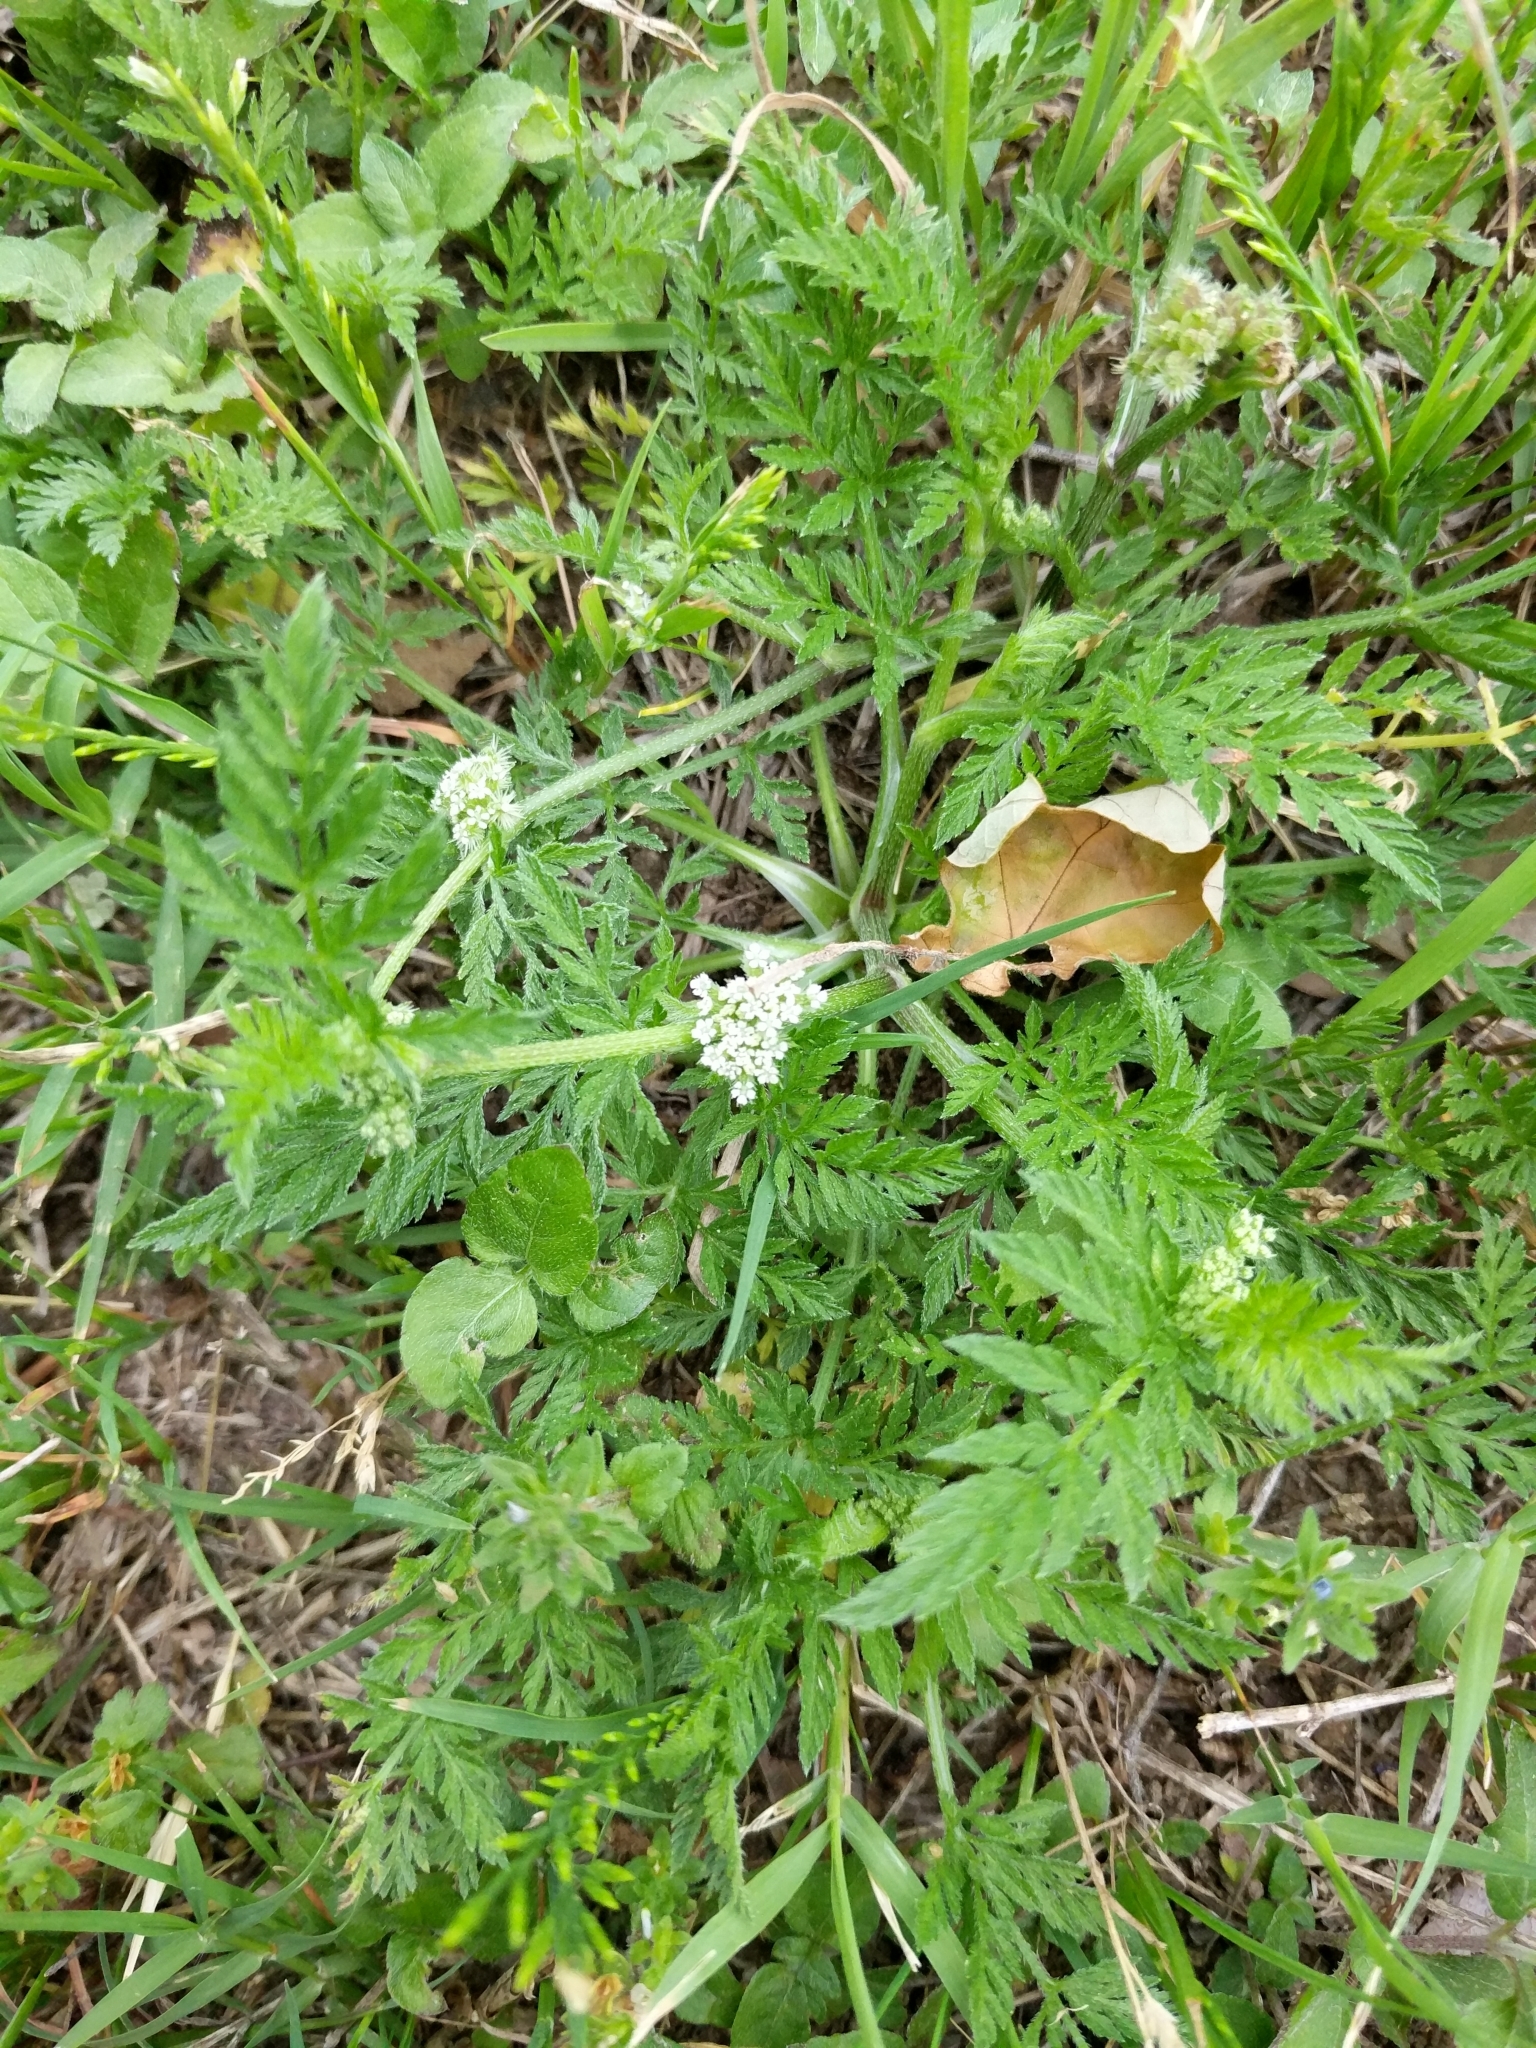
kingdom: Plantae
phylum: Tracheophyta
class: Magnoliopsida
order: Apiales
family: Apiaceae
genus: Torilis
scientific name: Torilis nodosa
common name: Knotted hedge-parsley
